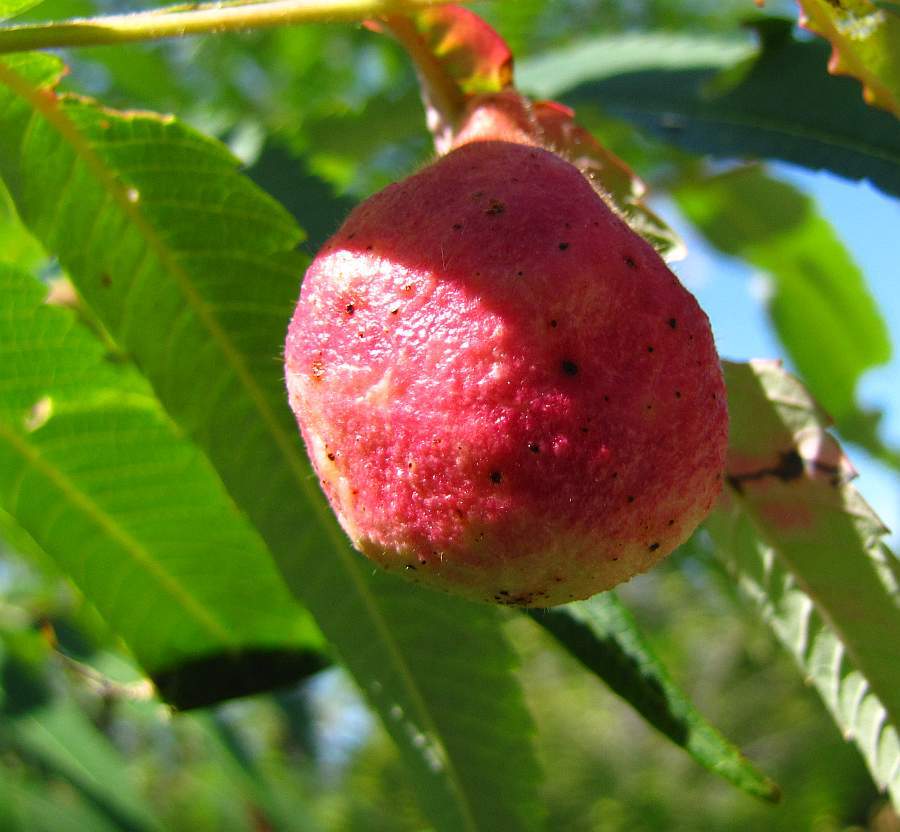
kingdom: Animalia
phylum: Arthropoda
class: Insecta
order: Hemiptera
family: Aphididae
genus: Melaphis
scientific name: Melaphis rhois
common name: Sumac gall aphid
